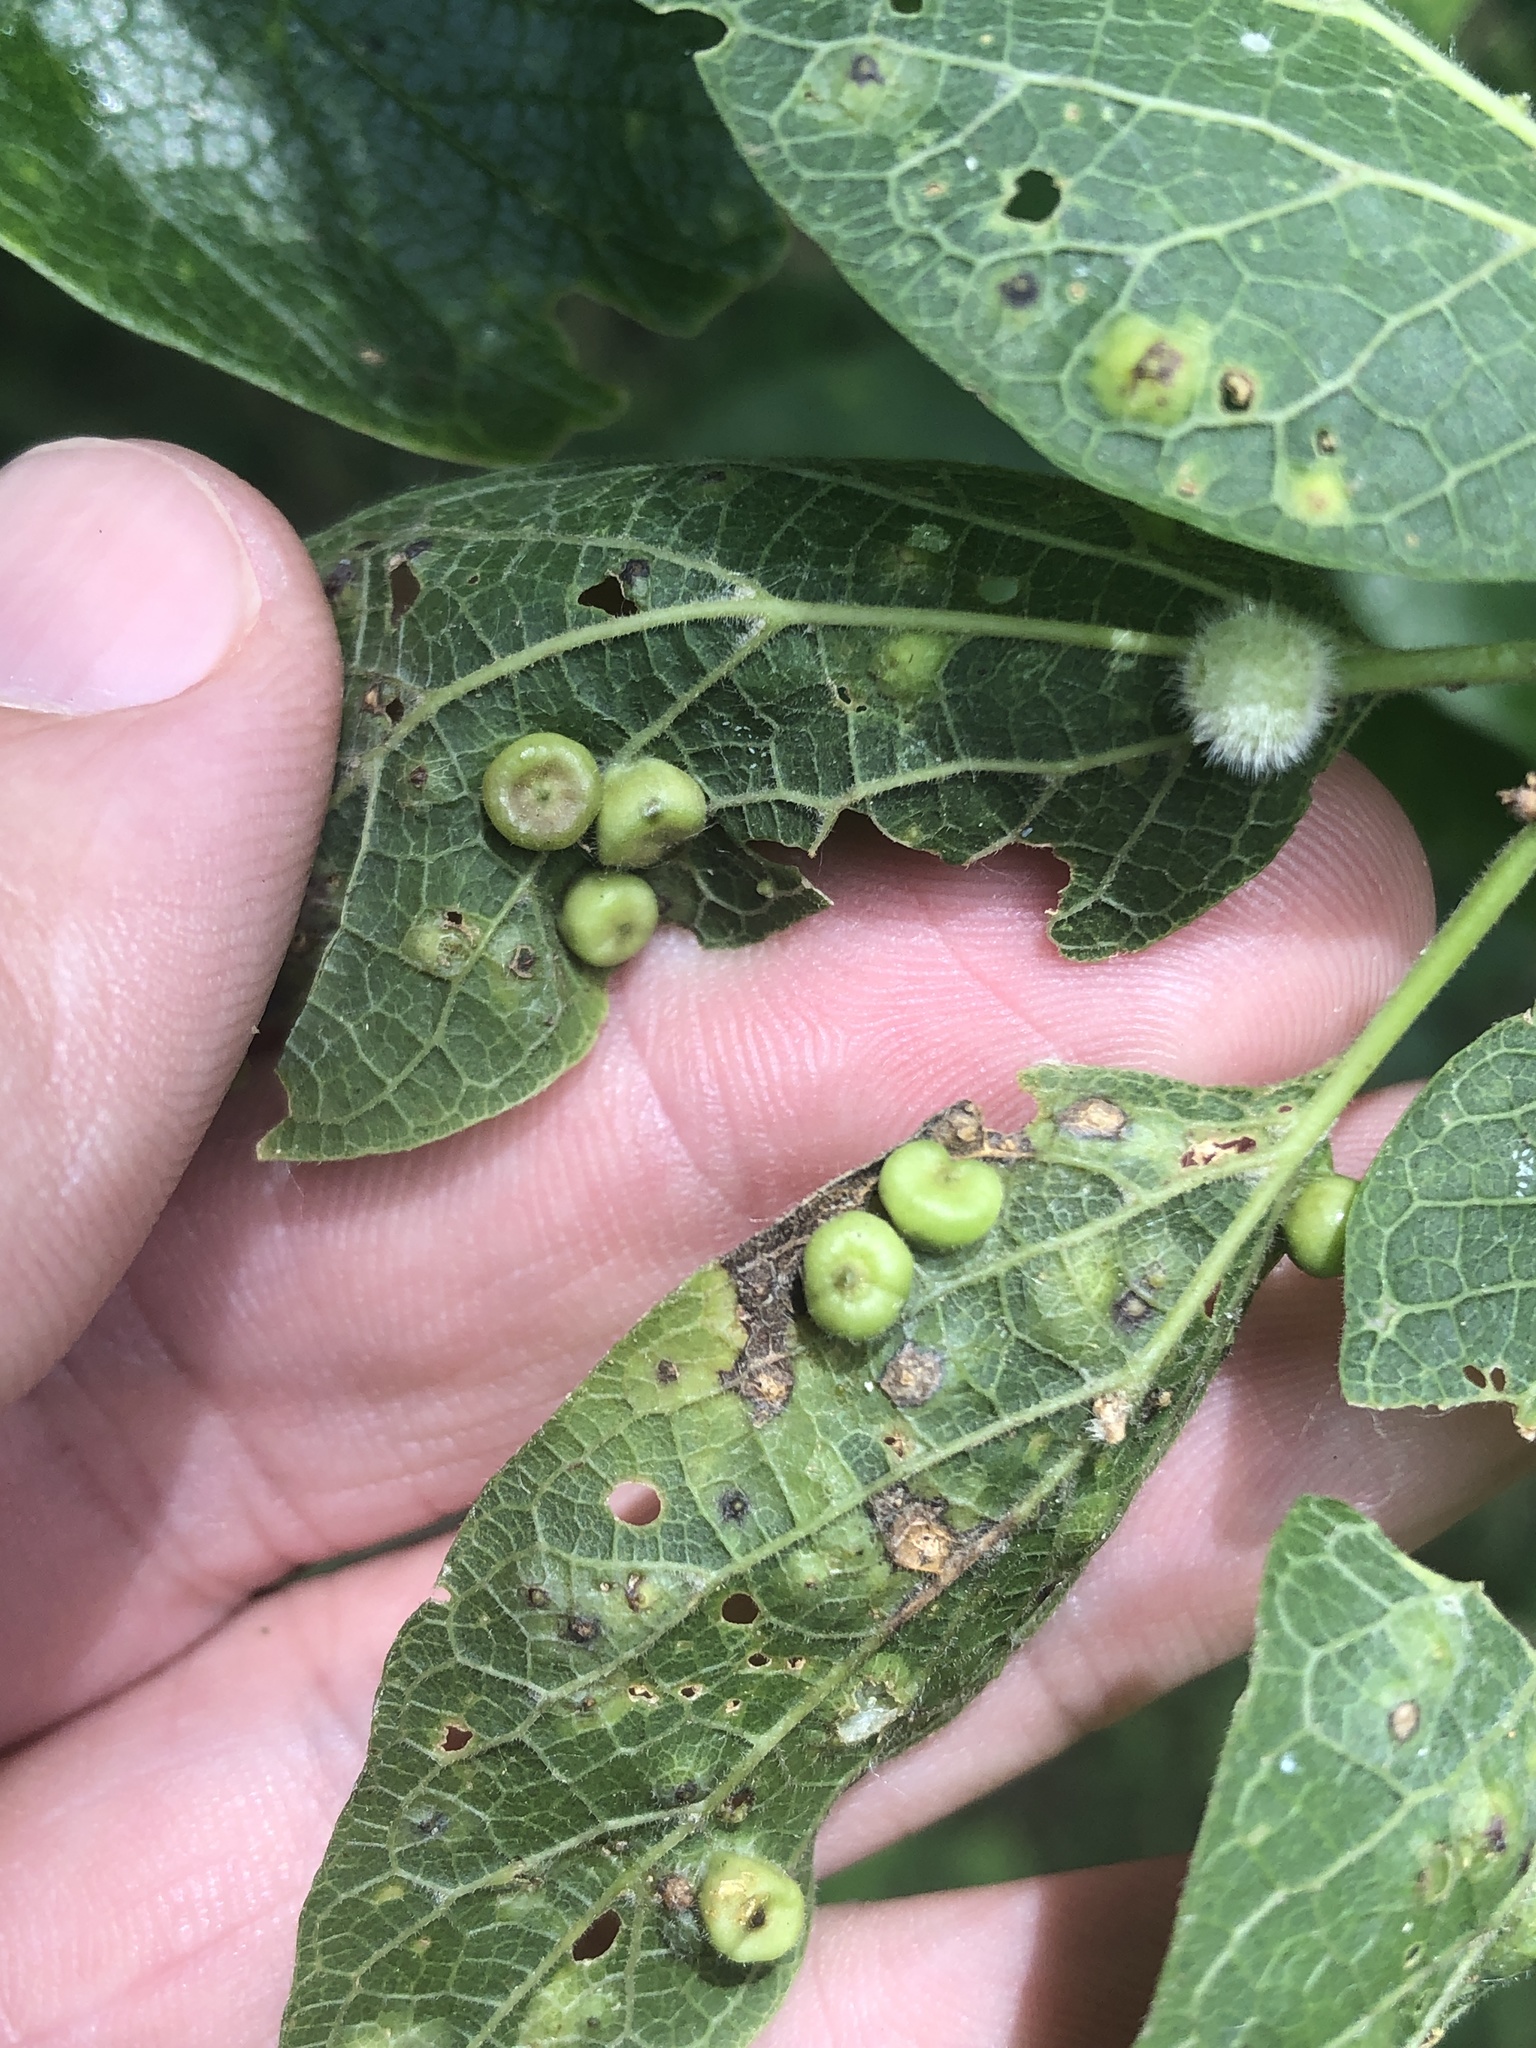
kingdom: Animalia
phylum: Arthropoda
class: Insecta
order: Hemiptera
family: Aphalaridae
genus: Pachypsylla
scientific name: Pachypsylla celtidismamma
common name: Hackberry nipplegall psyllid
